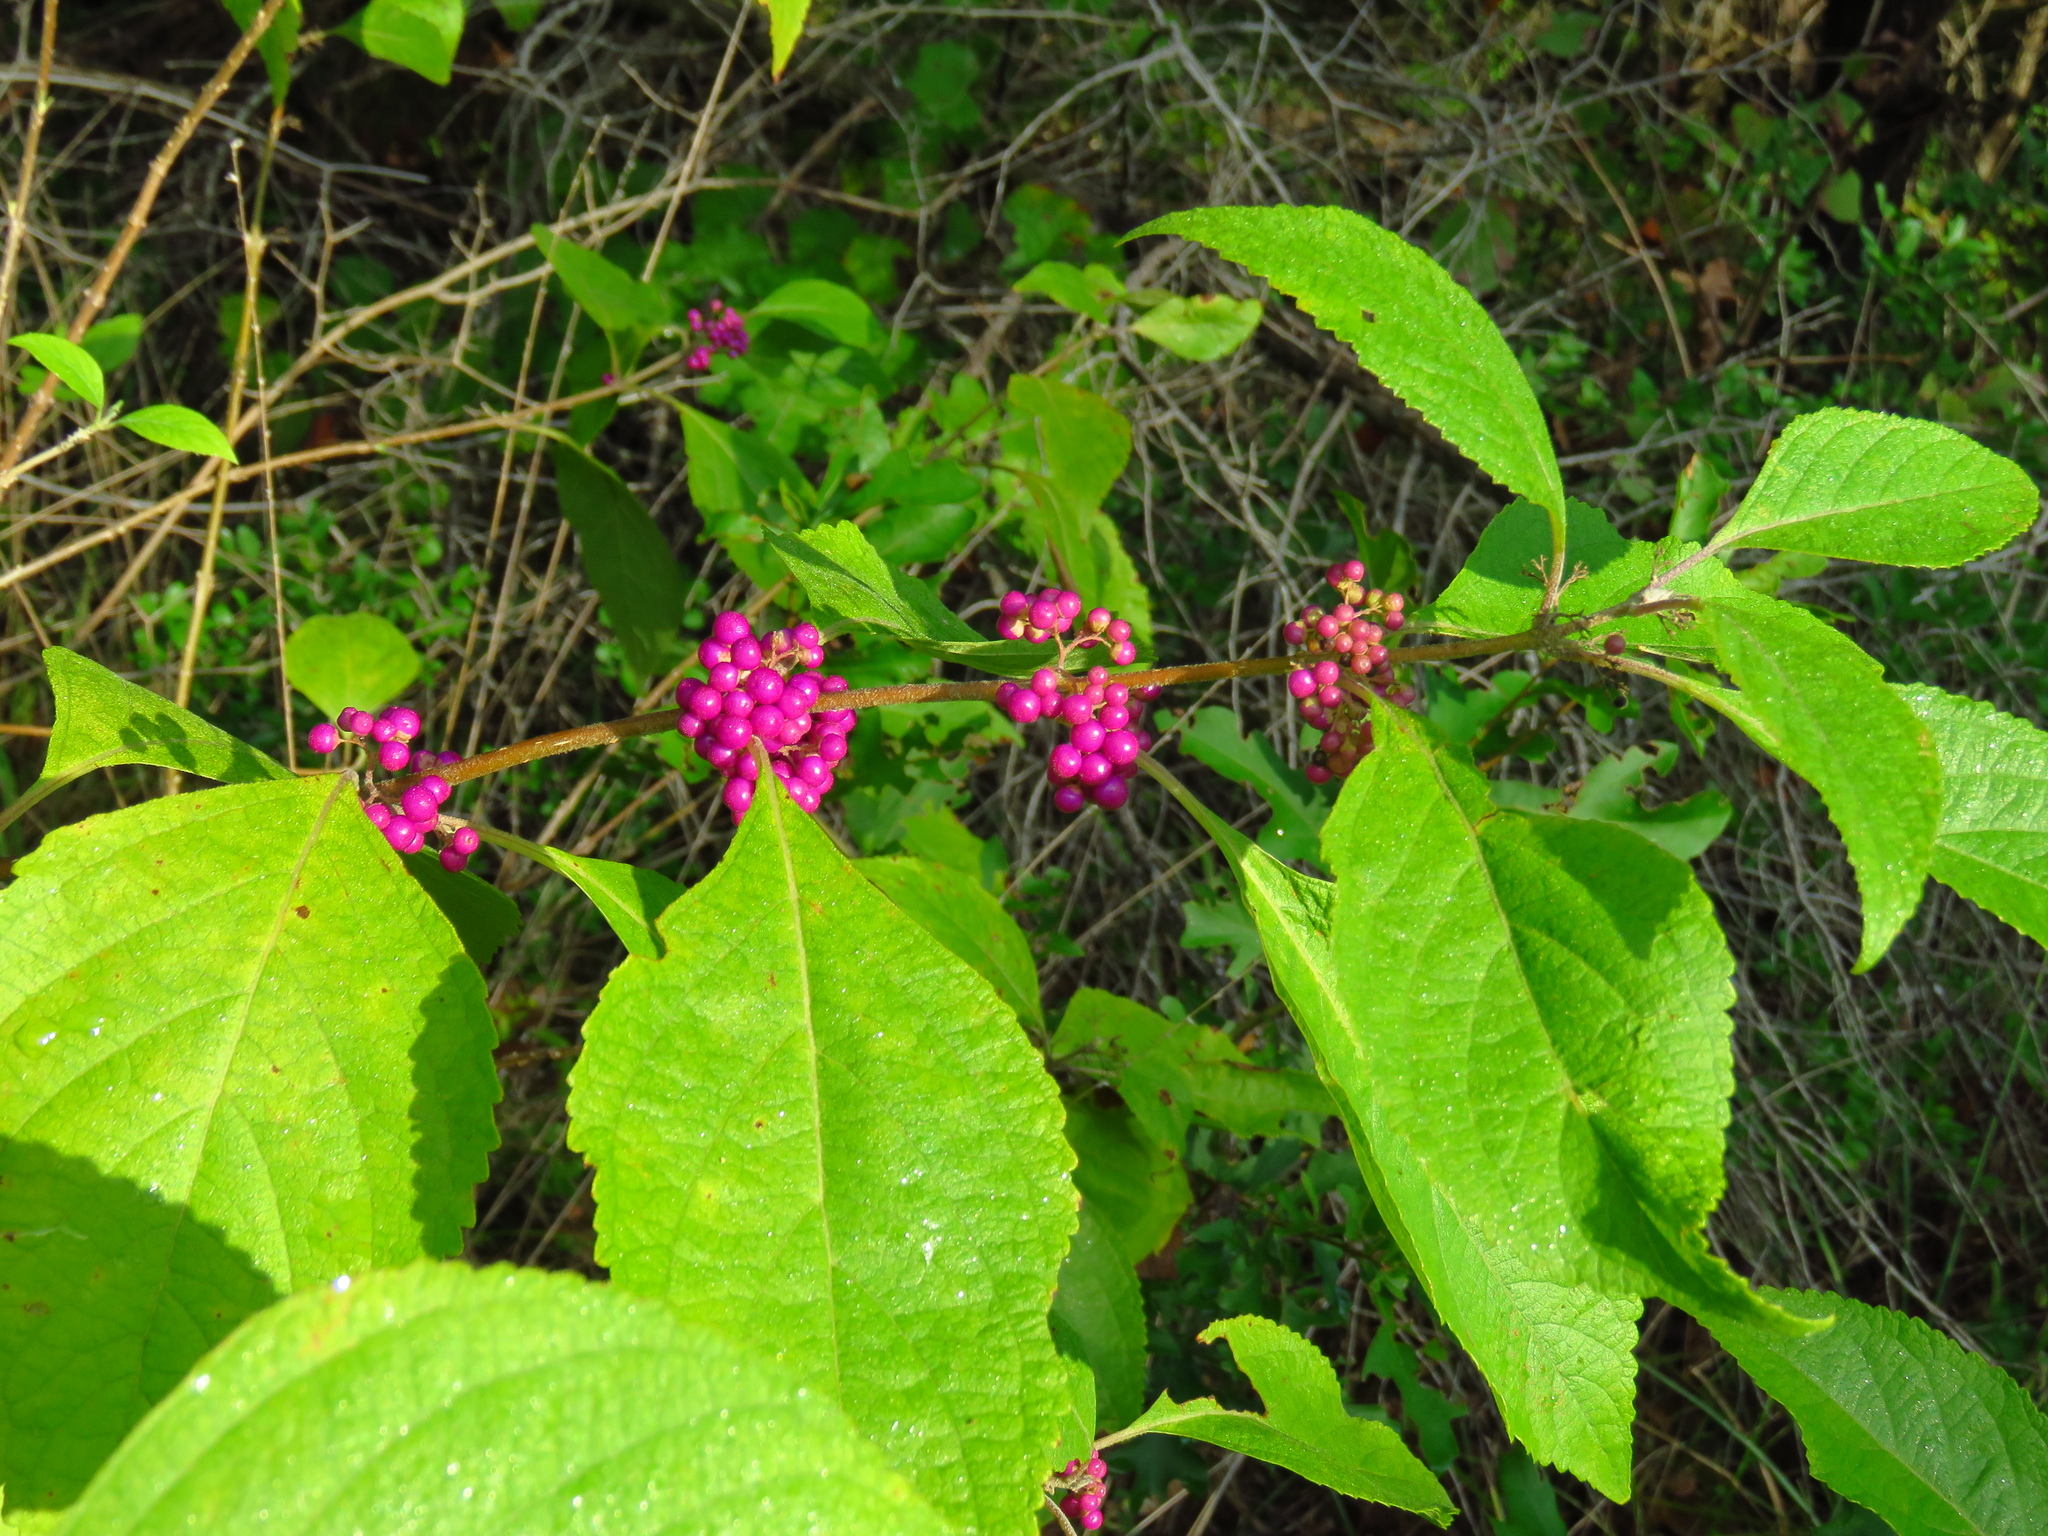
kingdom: Plantae
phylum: Tracheophyta
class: Magnoliopsida
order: Lamiales
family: Lamiaceae
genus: Callicarpa
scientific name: Callicarpa americana
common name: American beautyberry
